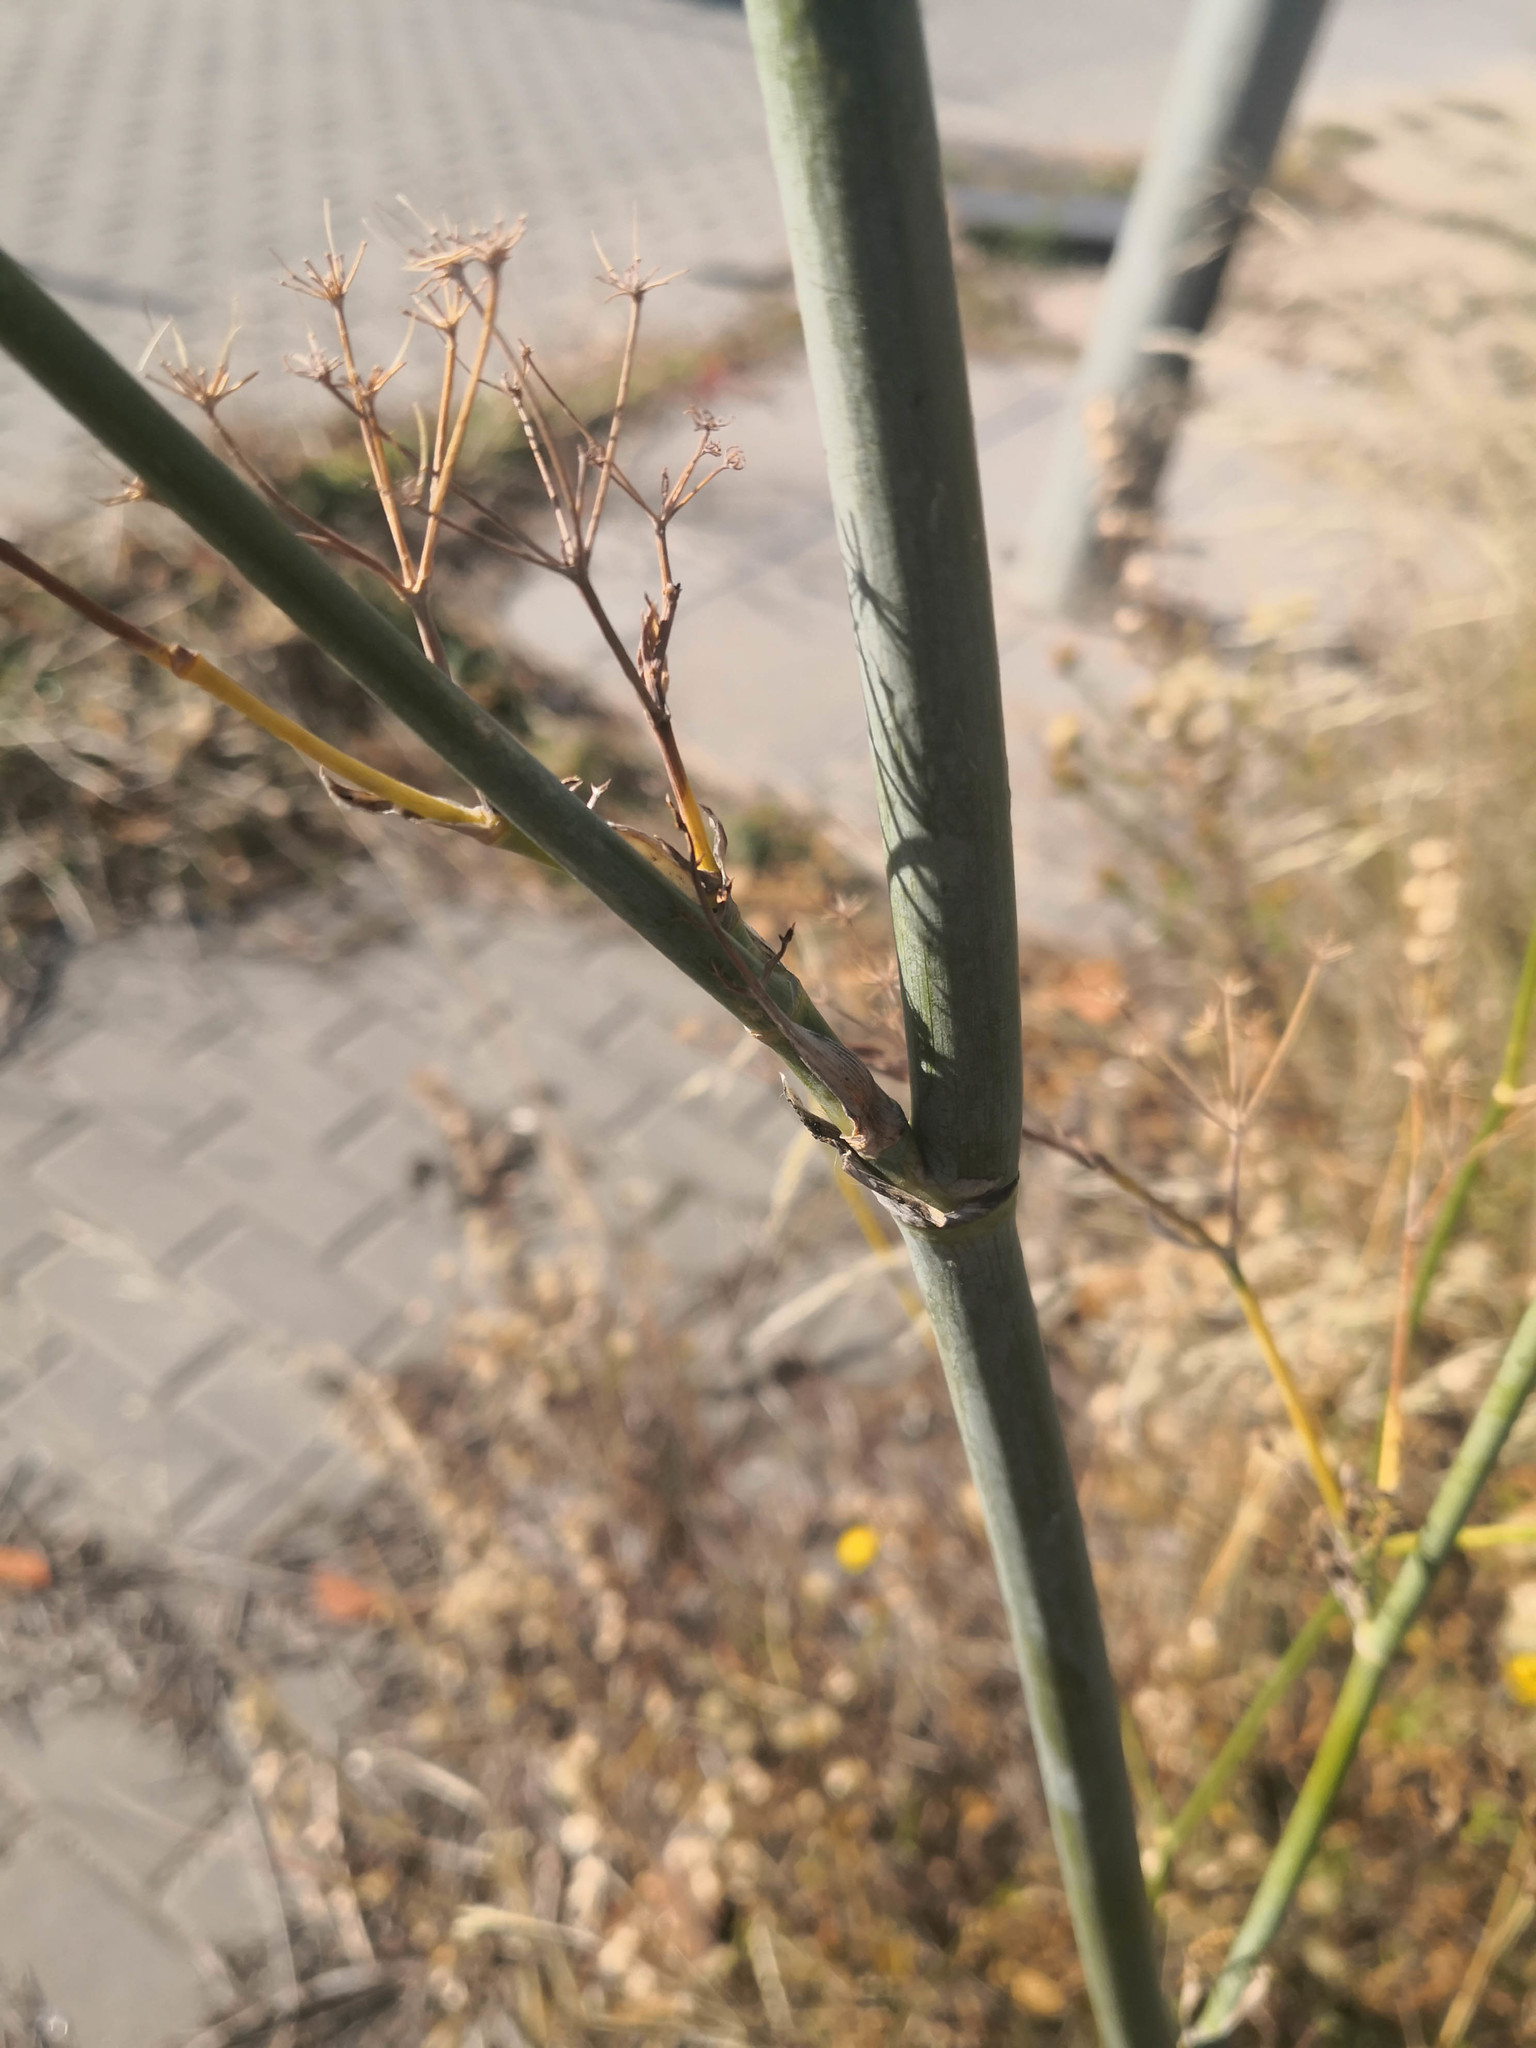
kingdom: Plantae
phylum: Tracheophyta
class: Magnoliopsida
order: Apiales
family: Apiaceae
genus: Foeniculum
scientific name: Foeniculum vulgare
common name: Fennel
